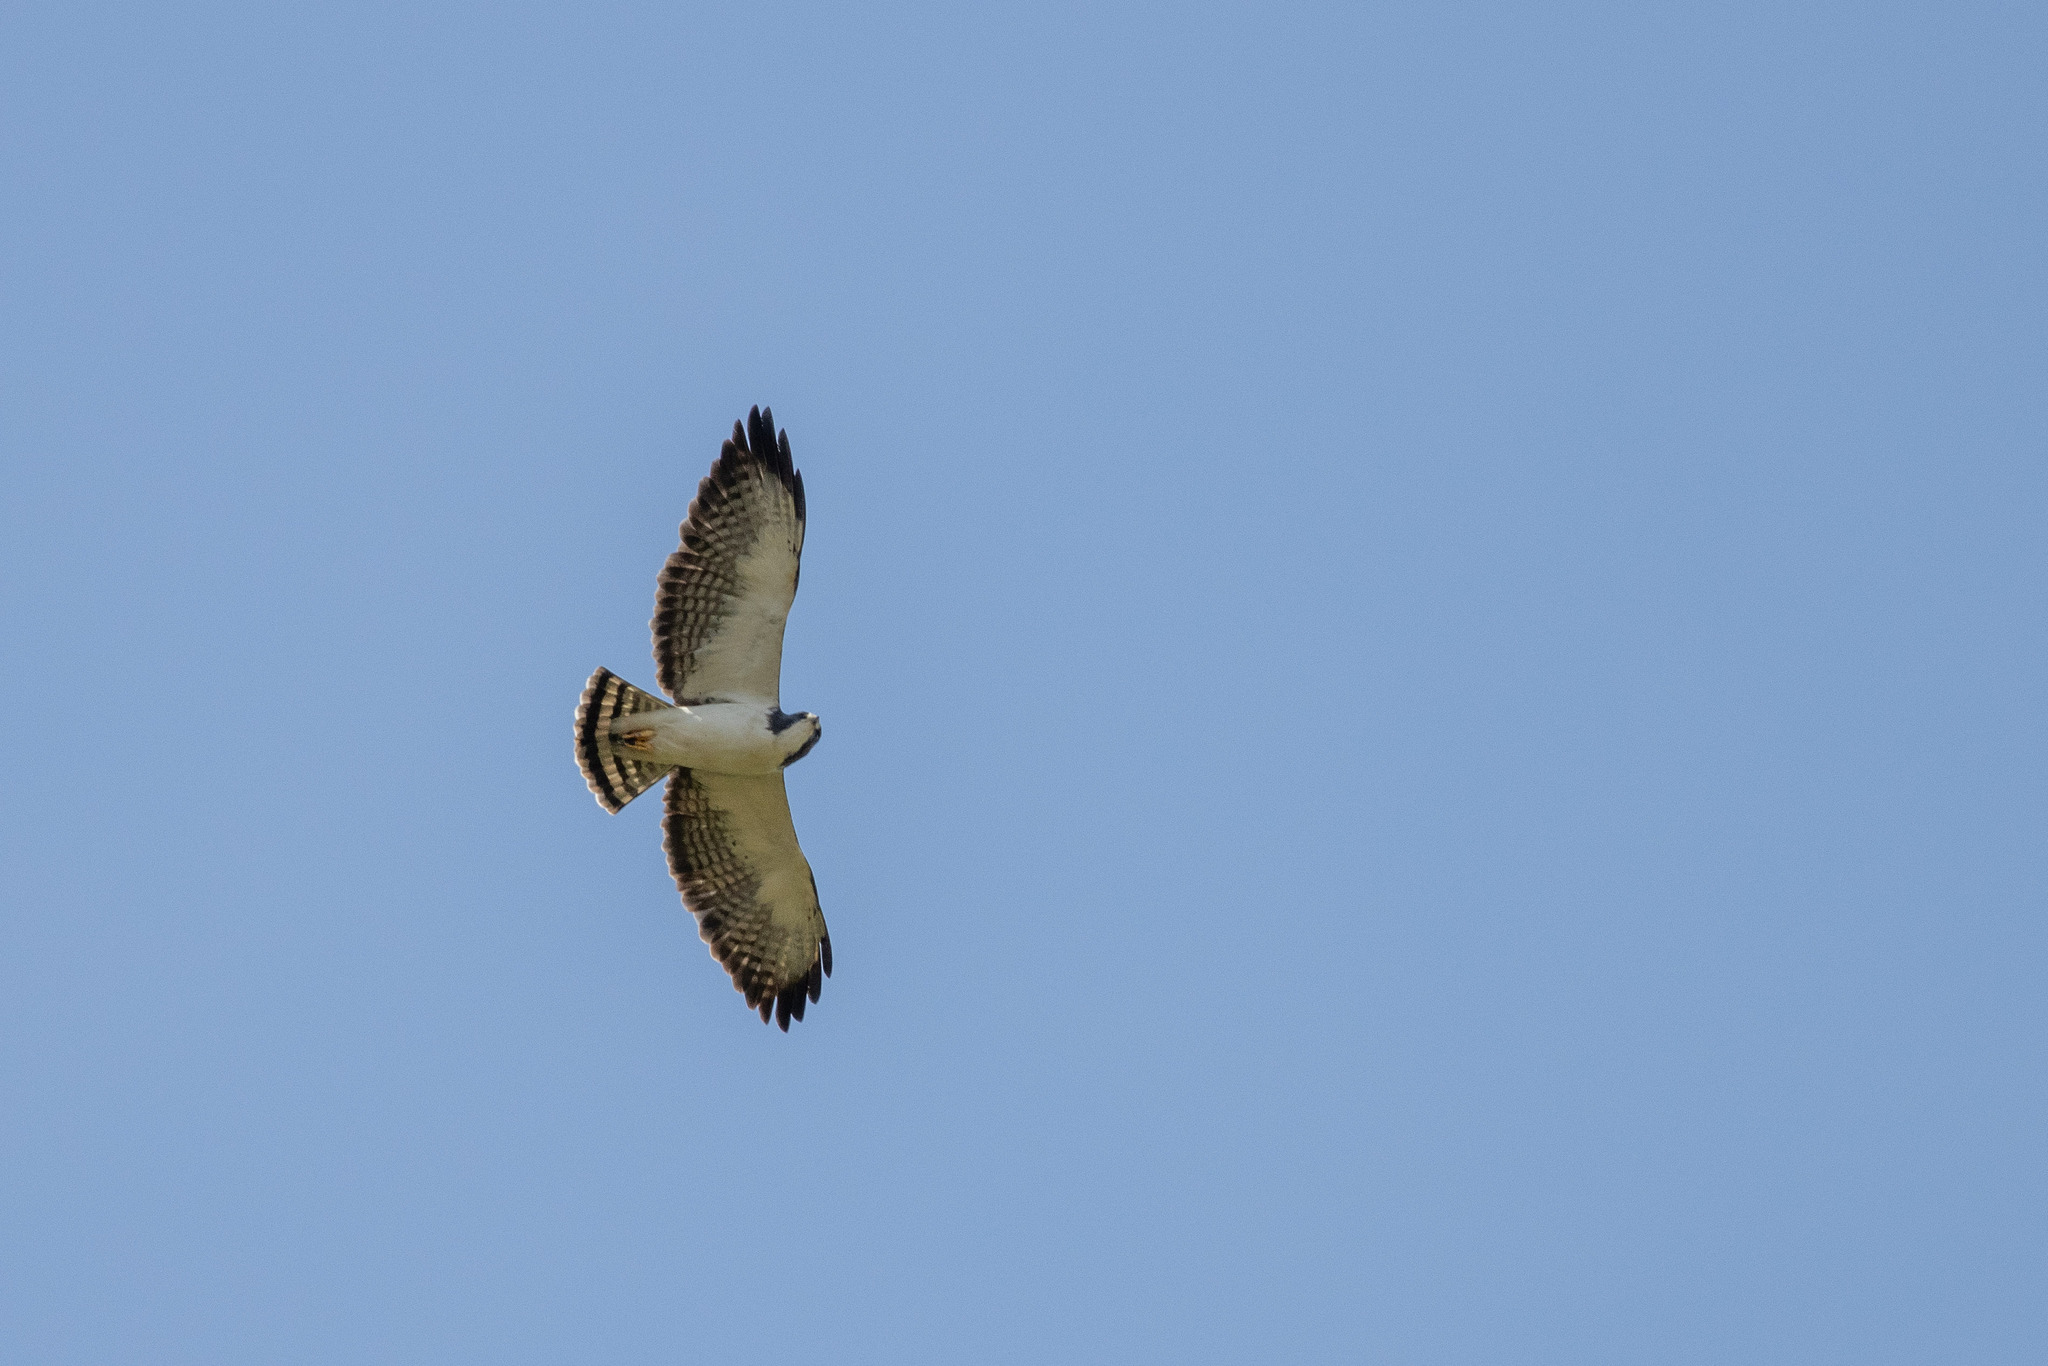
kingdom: Animalia
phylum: Chordata
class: Aves
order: Accipitriformes
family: Accipitridae
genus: Buteo
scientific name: Buteo brachyurus
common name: Short-tailed hawk
